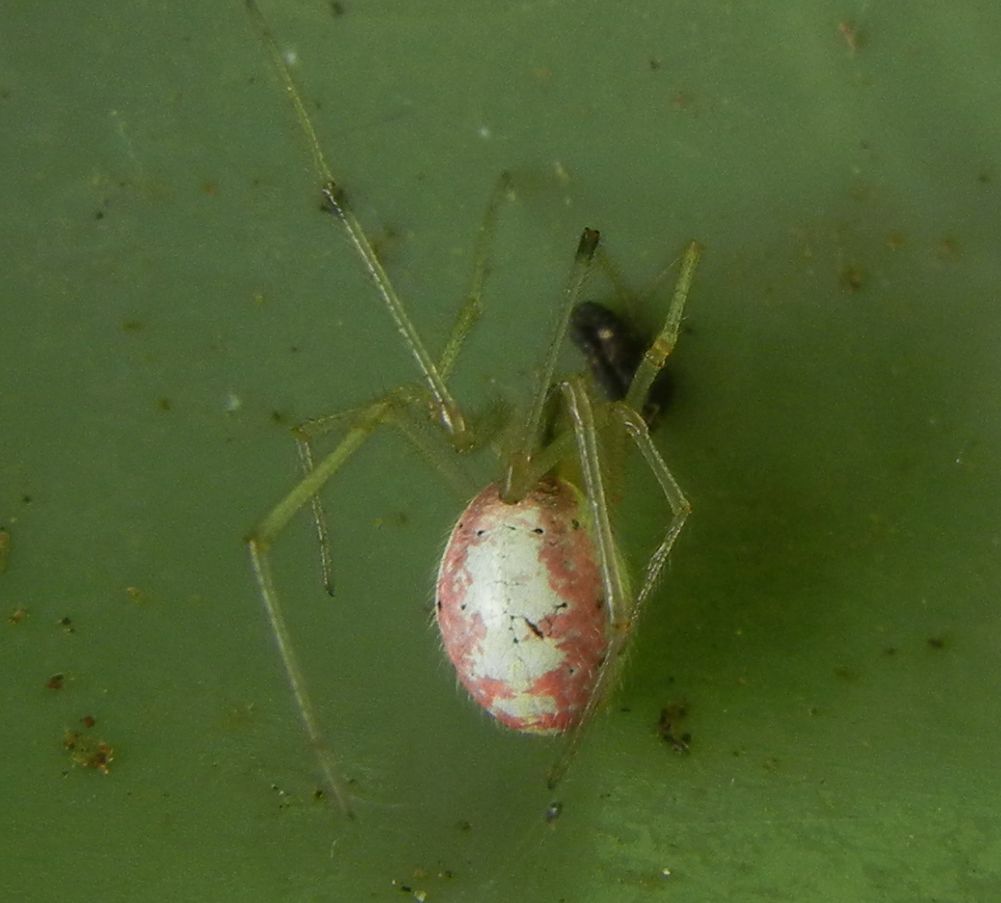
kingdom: Animalia
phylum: Arthropoda
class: Arachnida
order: Araneae
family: Theridiidae
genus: Enoplognatha
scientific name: Enoplognatha
